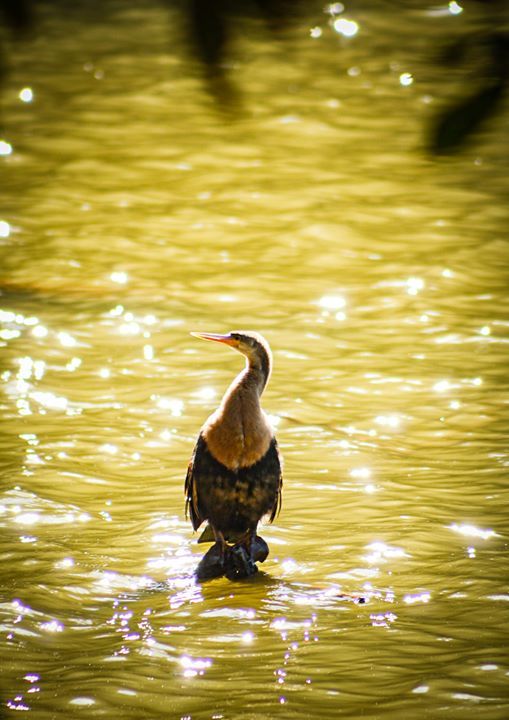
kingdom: Animalia
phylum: Chordata
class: Aves
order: Suliformes
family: Anhingidae
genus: Anhinga
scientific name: Anhinga anhinga
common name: Anhinga
